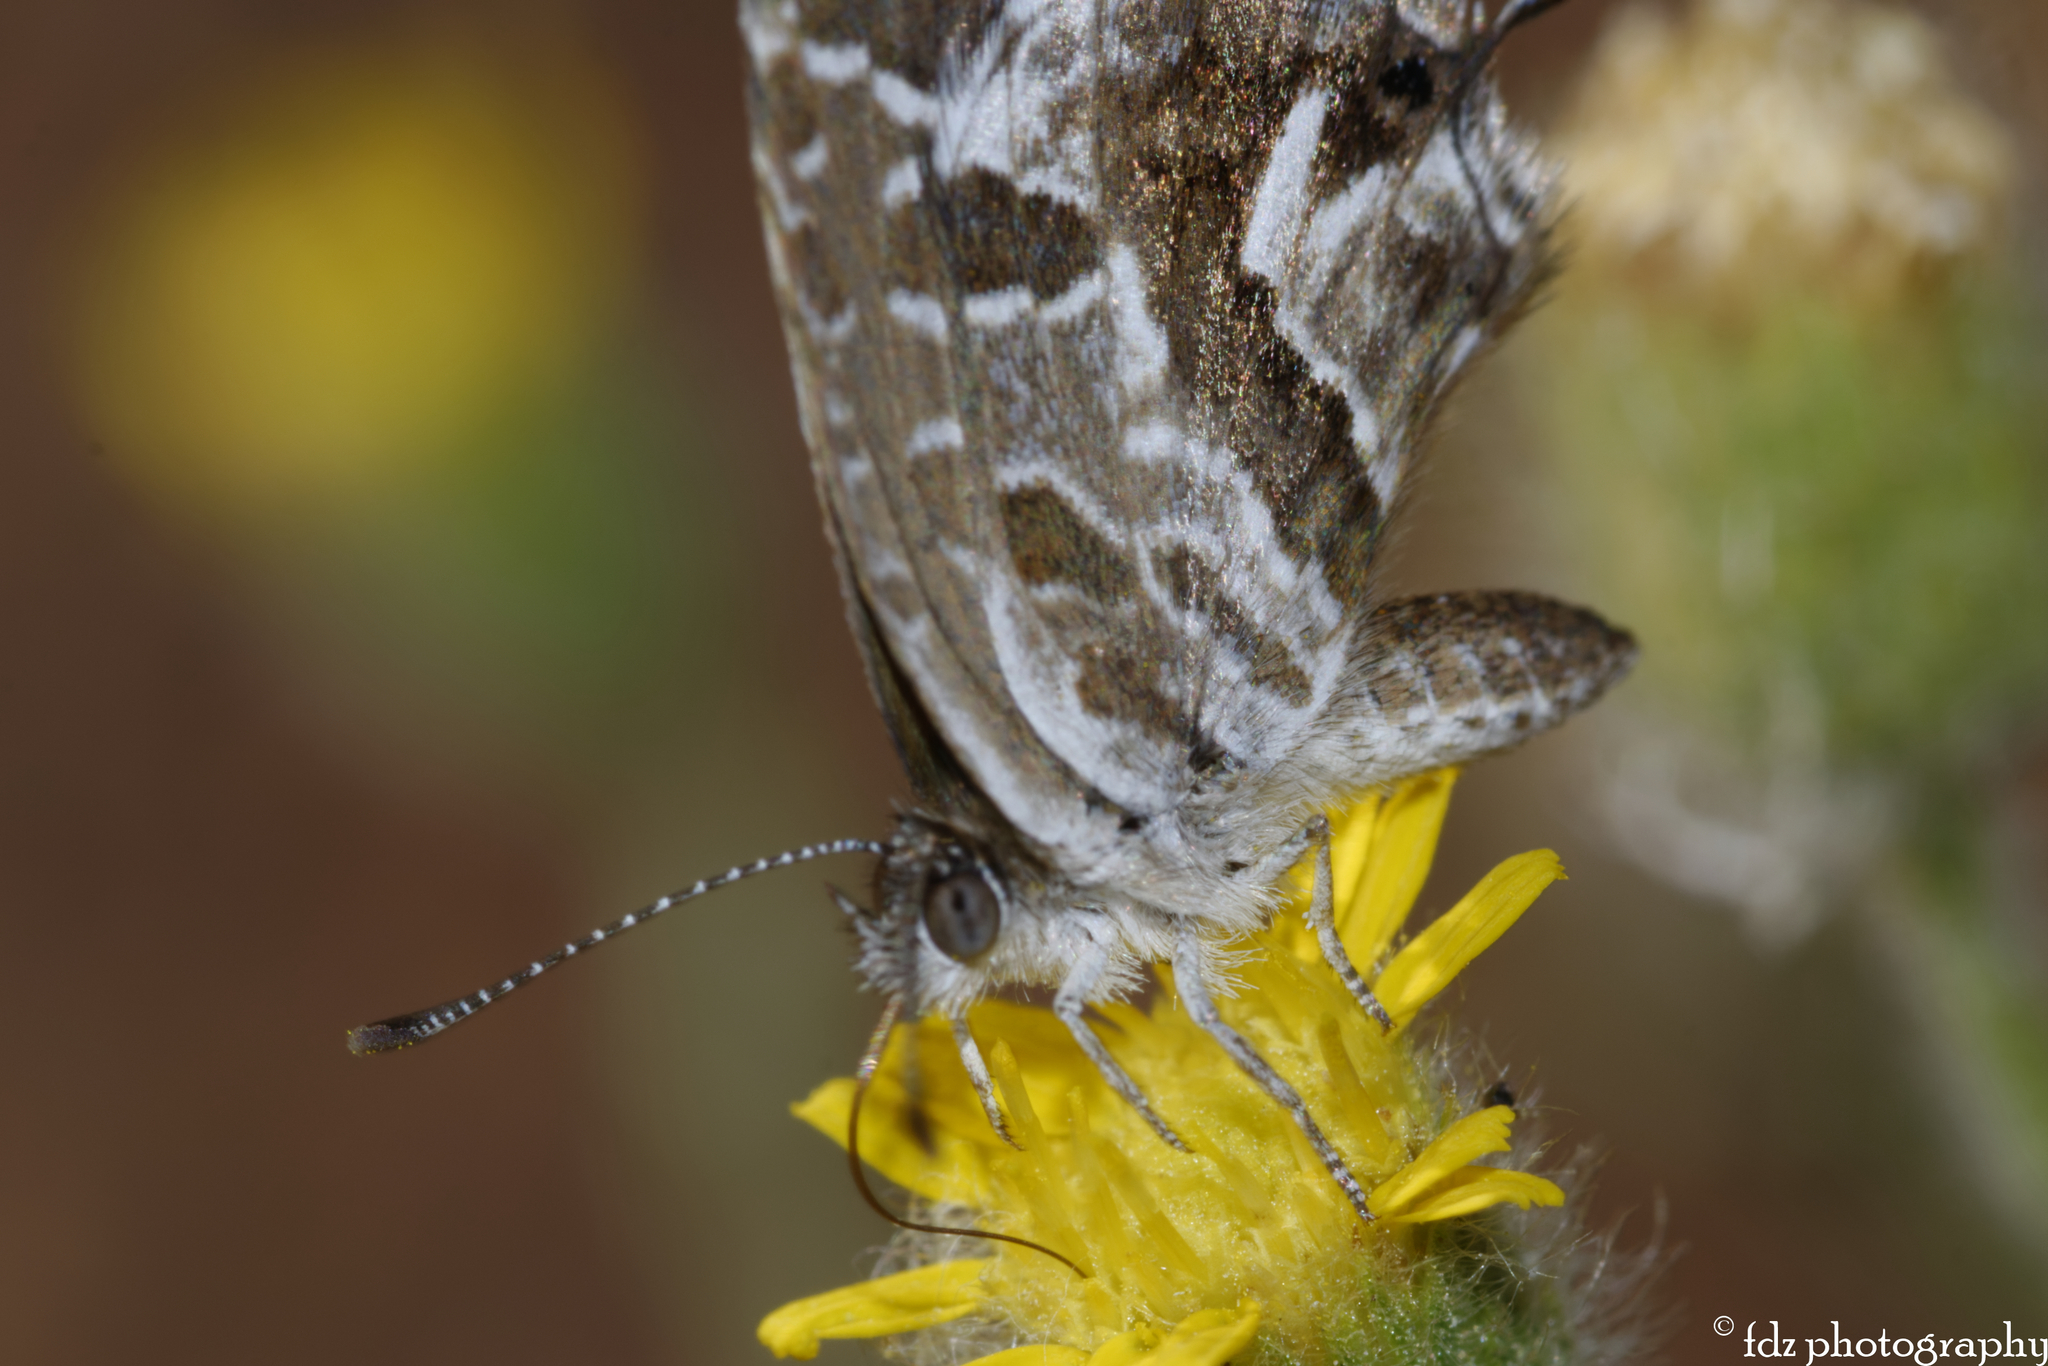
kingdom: Animalia
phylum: Arthropoda
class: Insecta
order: Lepidoptera
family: Lycaenidae
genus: Cacyreus
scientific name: Cacyreus marshalli
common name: Geranium bronze
